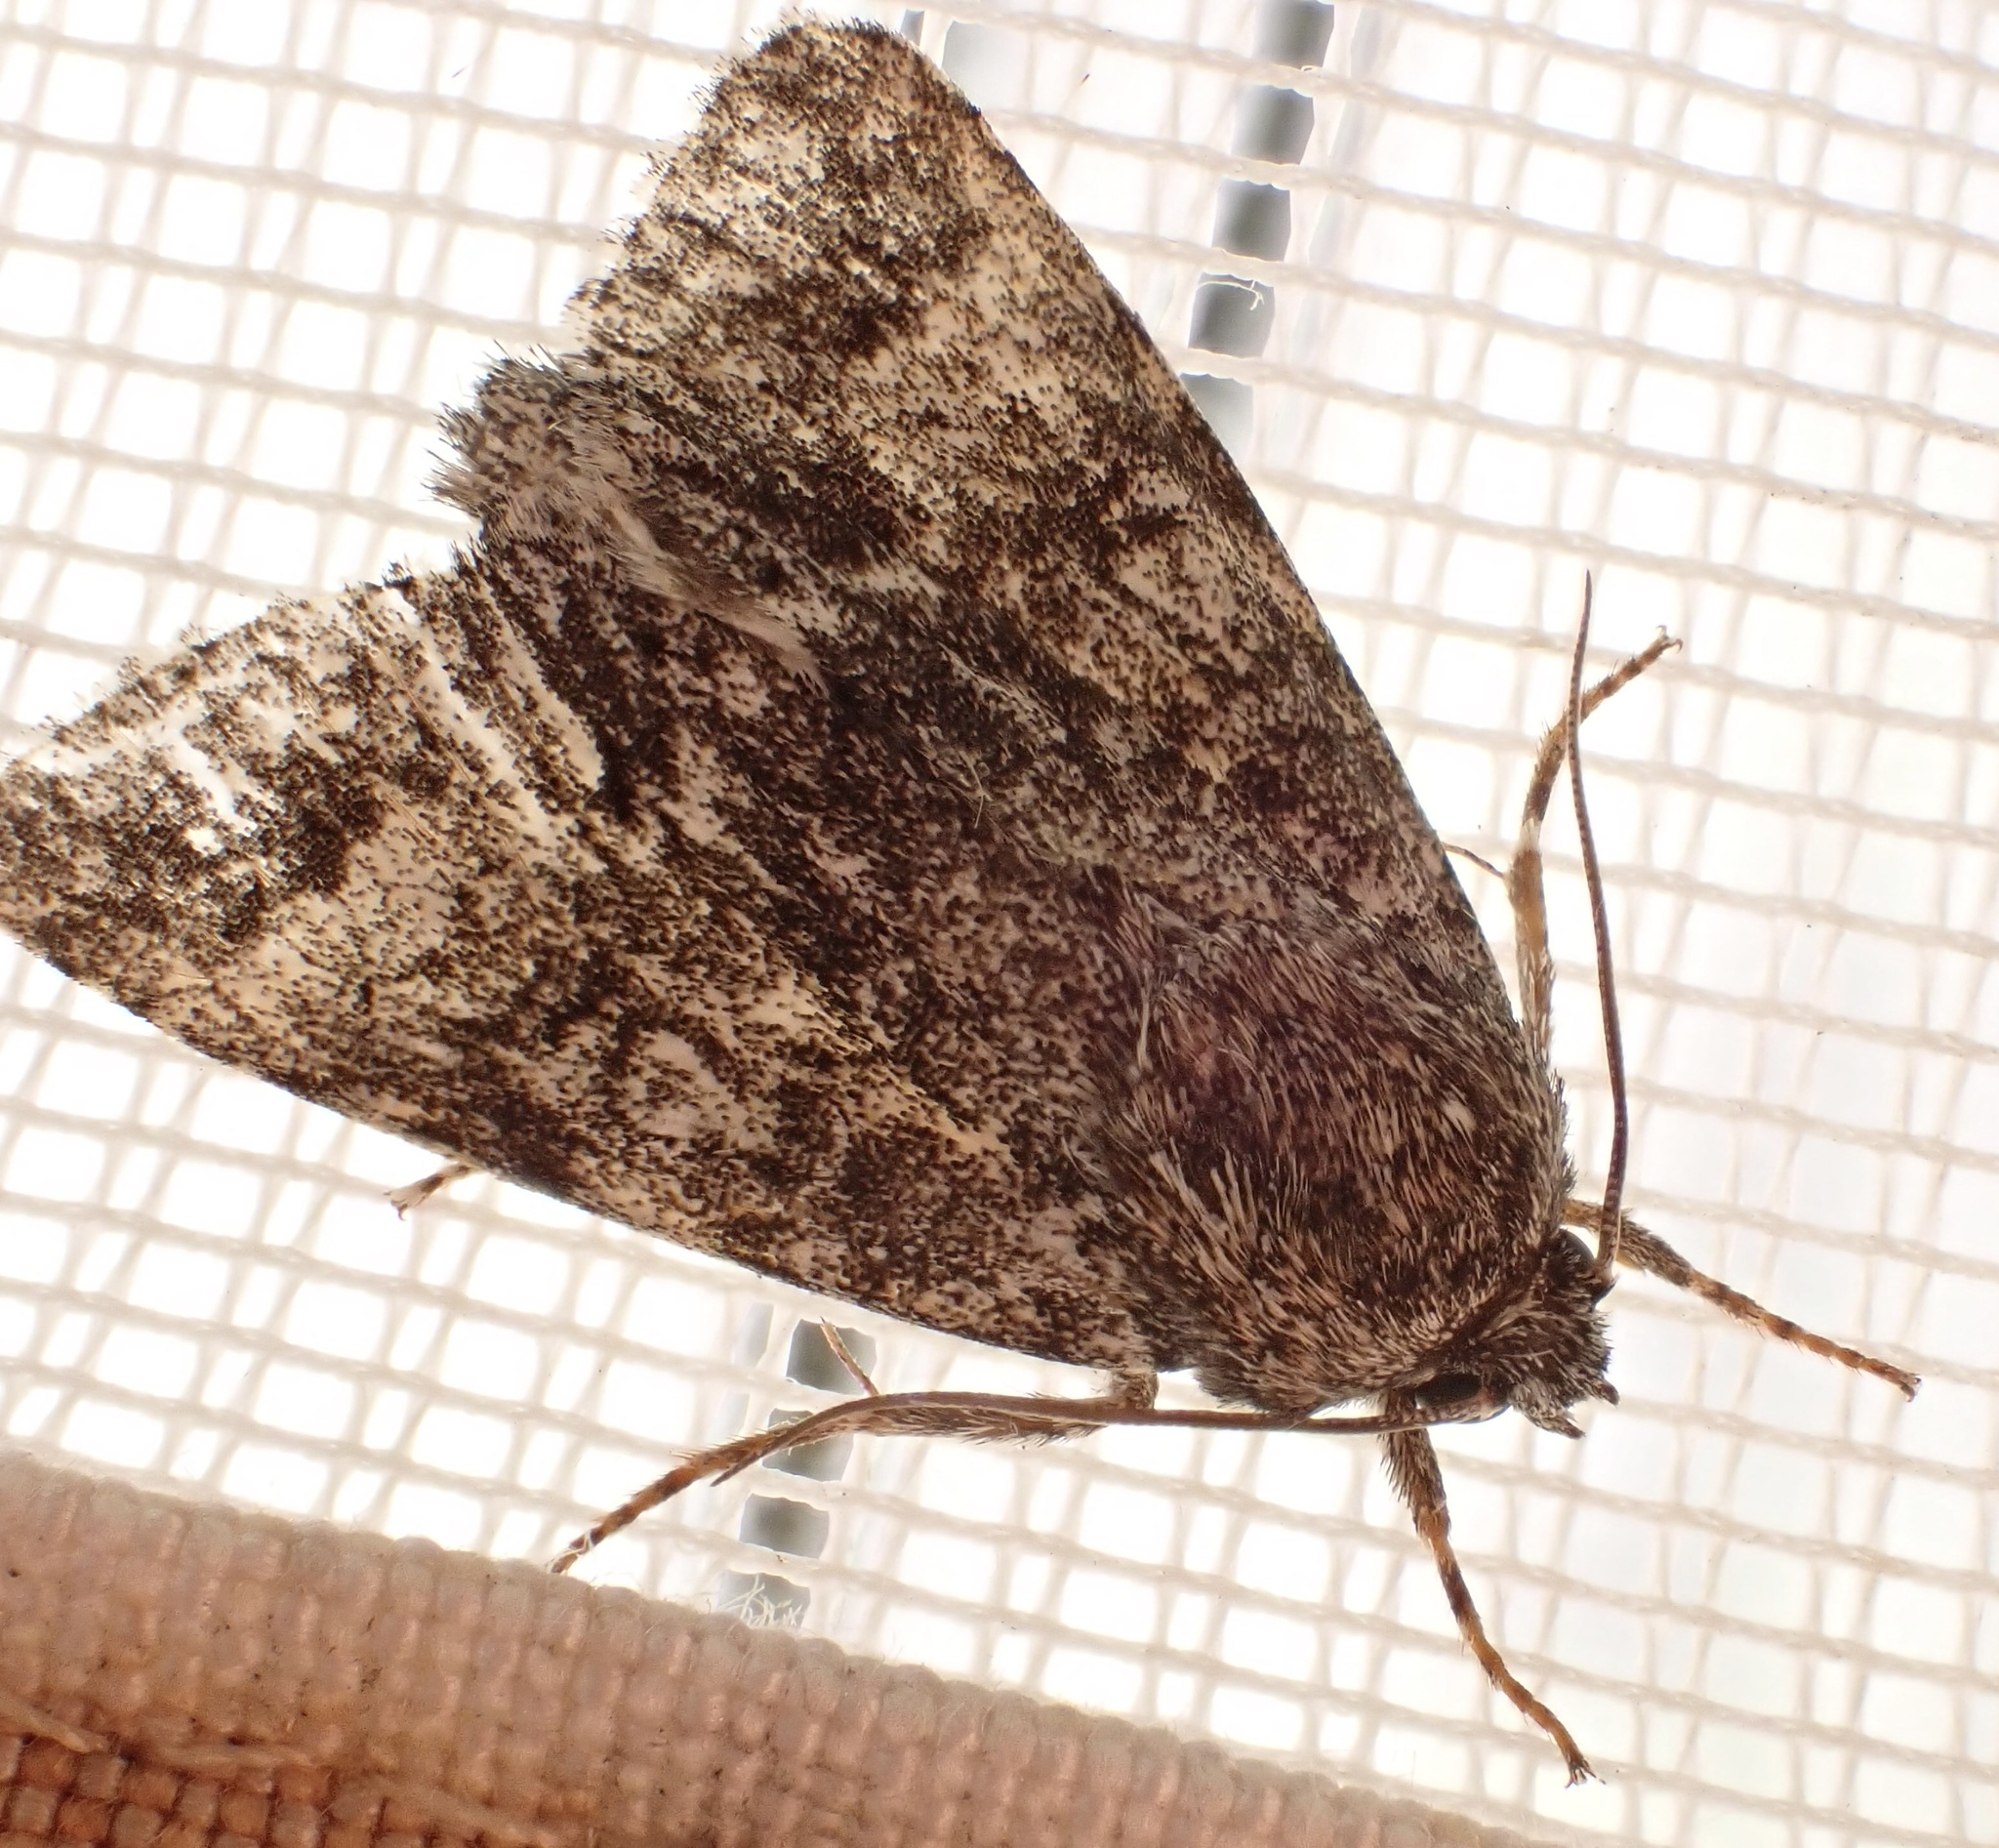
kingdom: Animalia
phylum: Arthropoda
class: Insecta
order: Lepidoptera
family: Noctuidae
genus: Acronicta
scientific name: Acronicta megacephala
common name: Poplar grey
